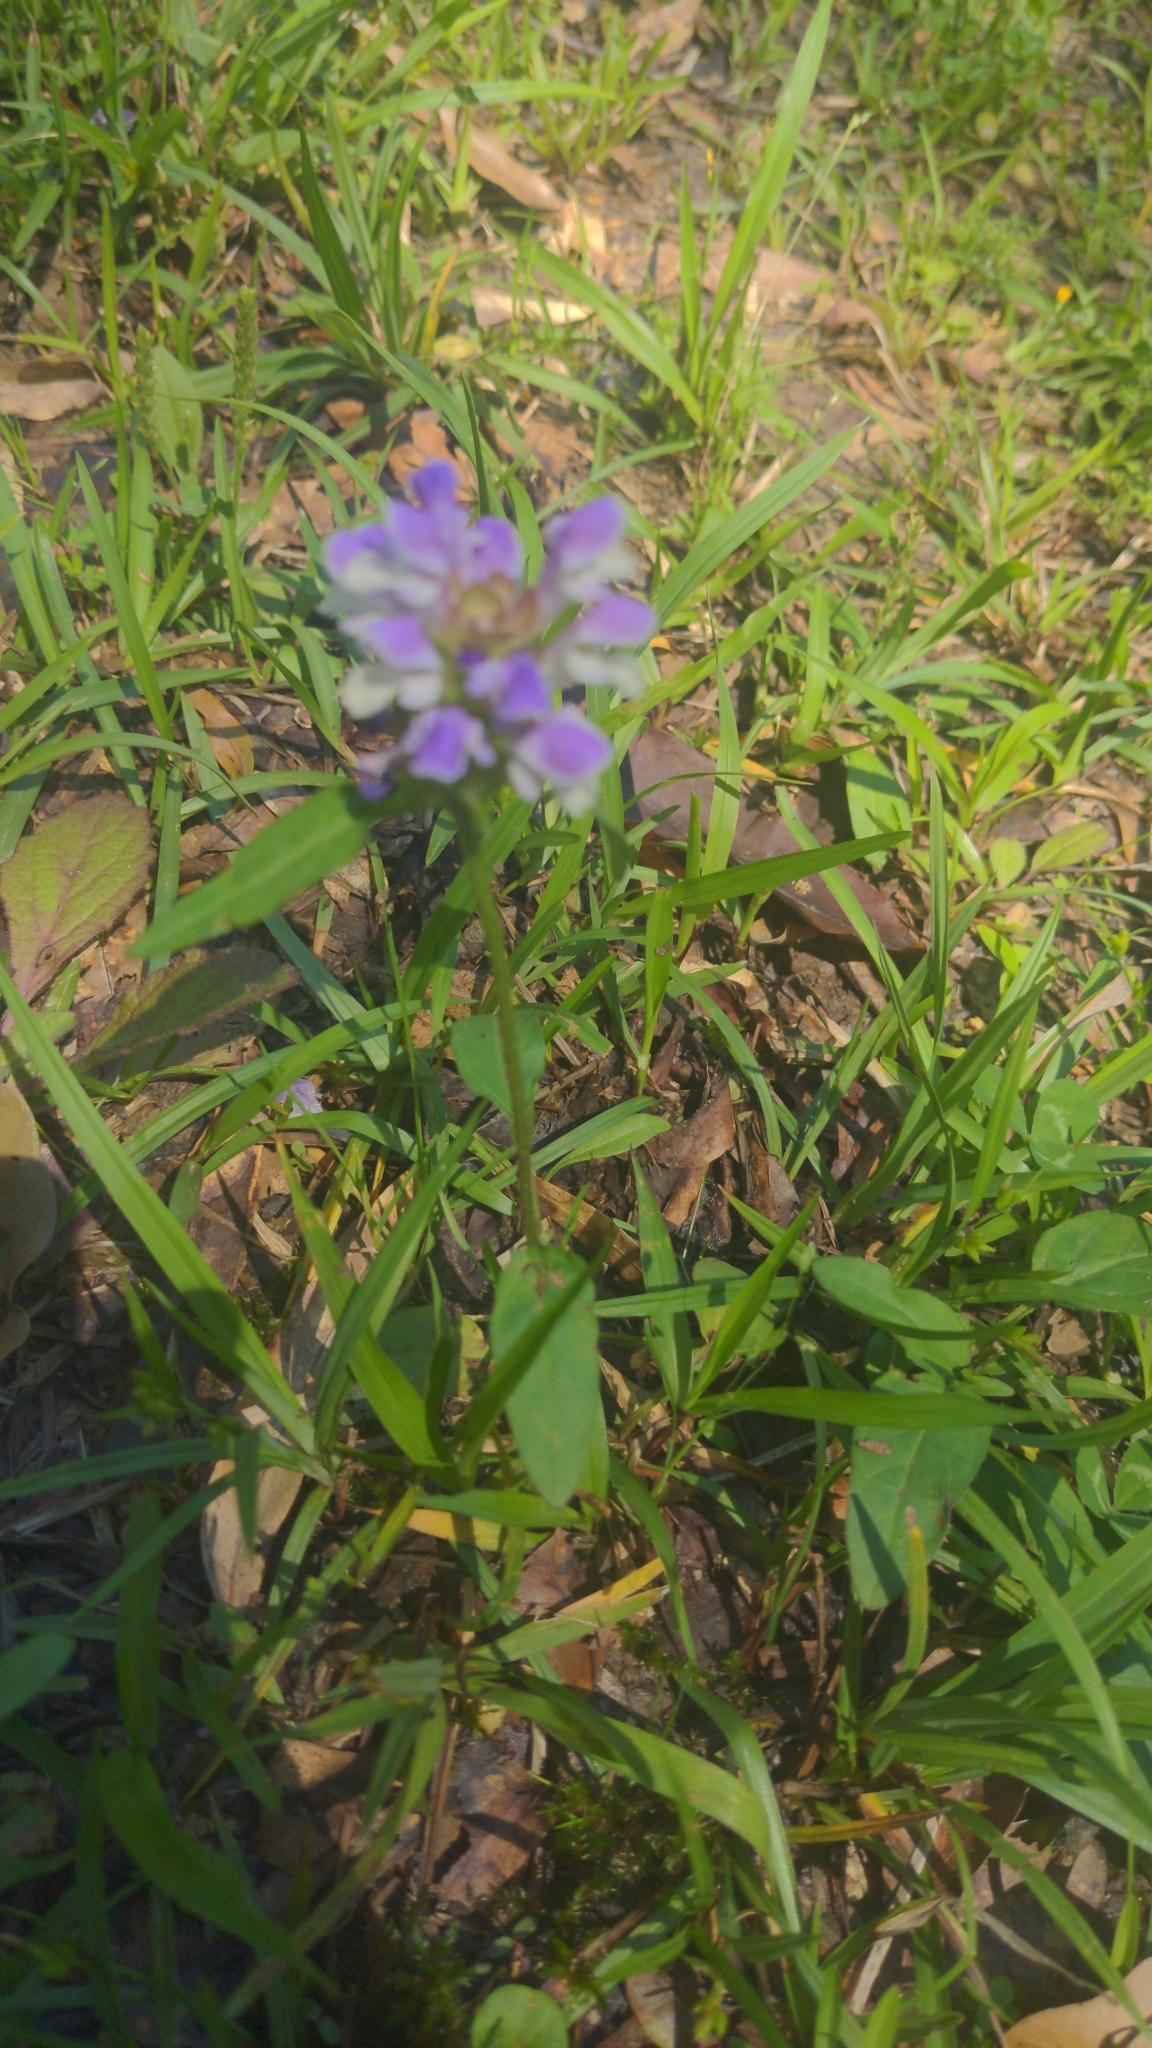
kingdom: Plantae
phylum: Tracheophyta
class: Magnoliopsida
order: Lamiales
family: Lamiaceae
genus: Prunella
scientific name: Prunella vulgaris
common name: Heal-all
